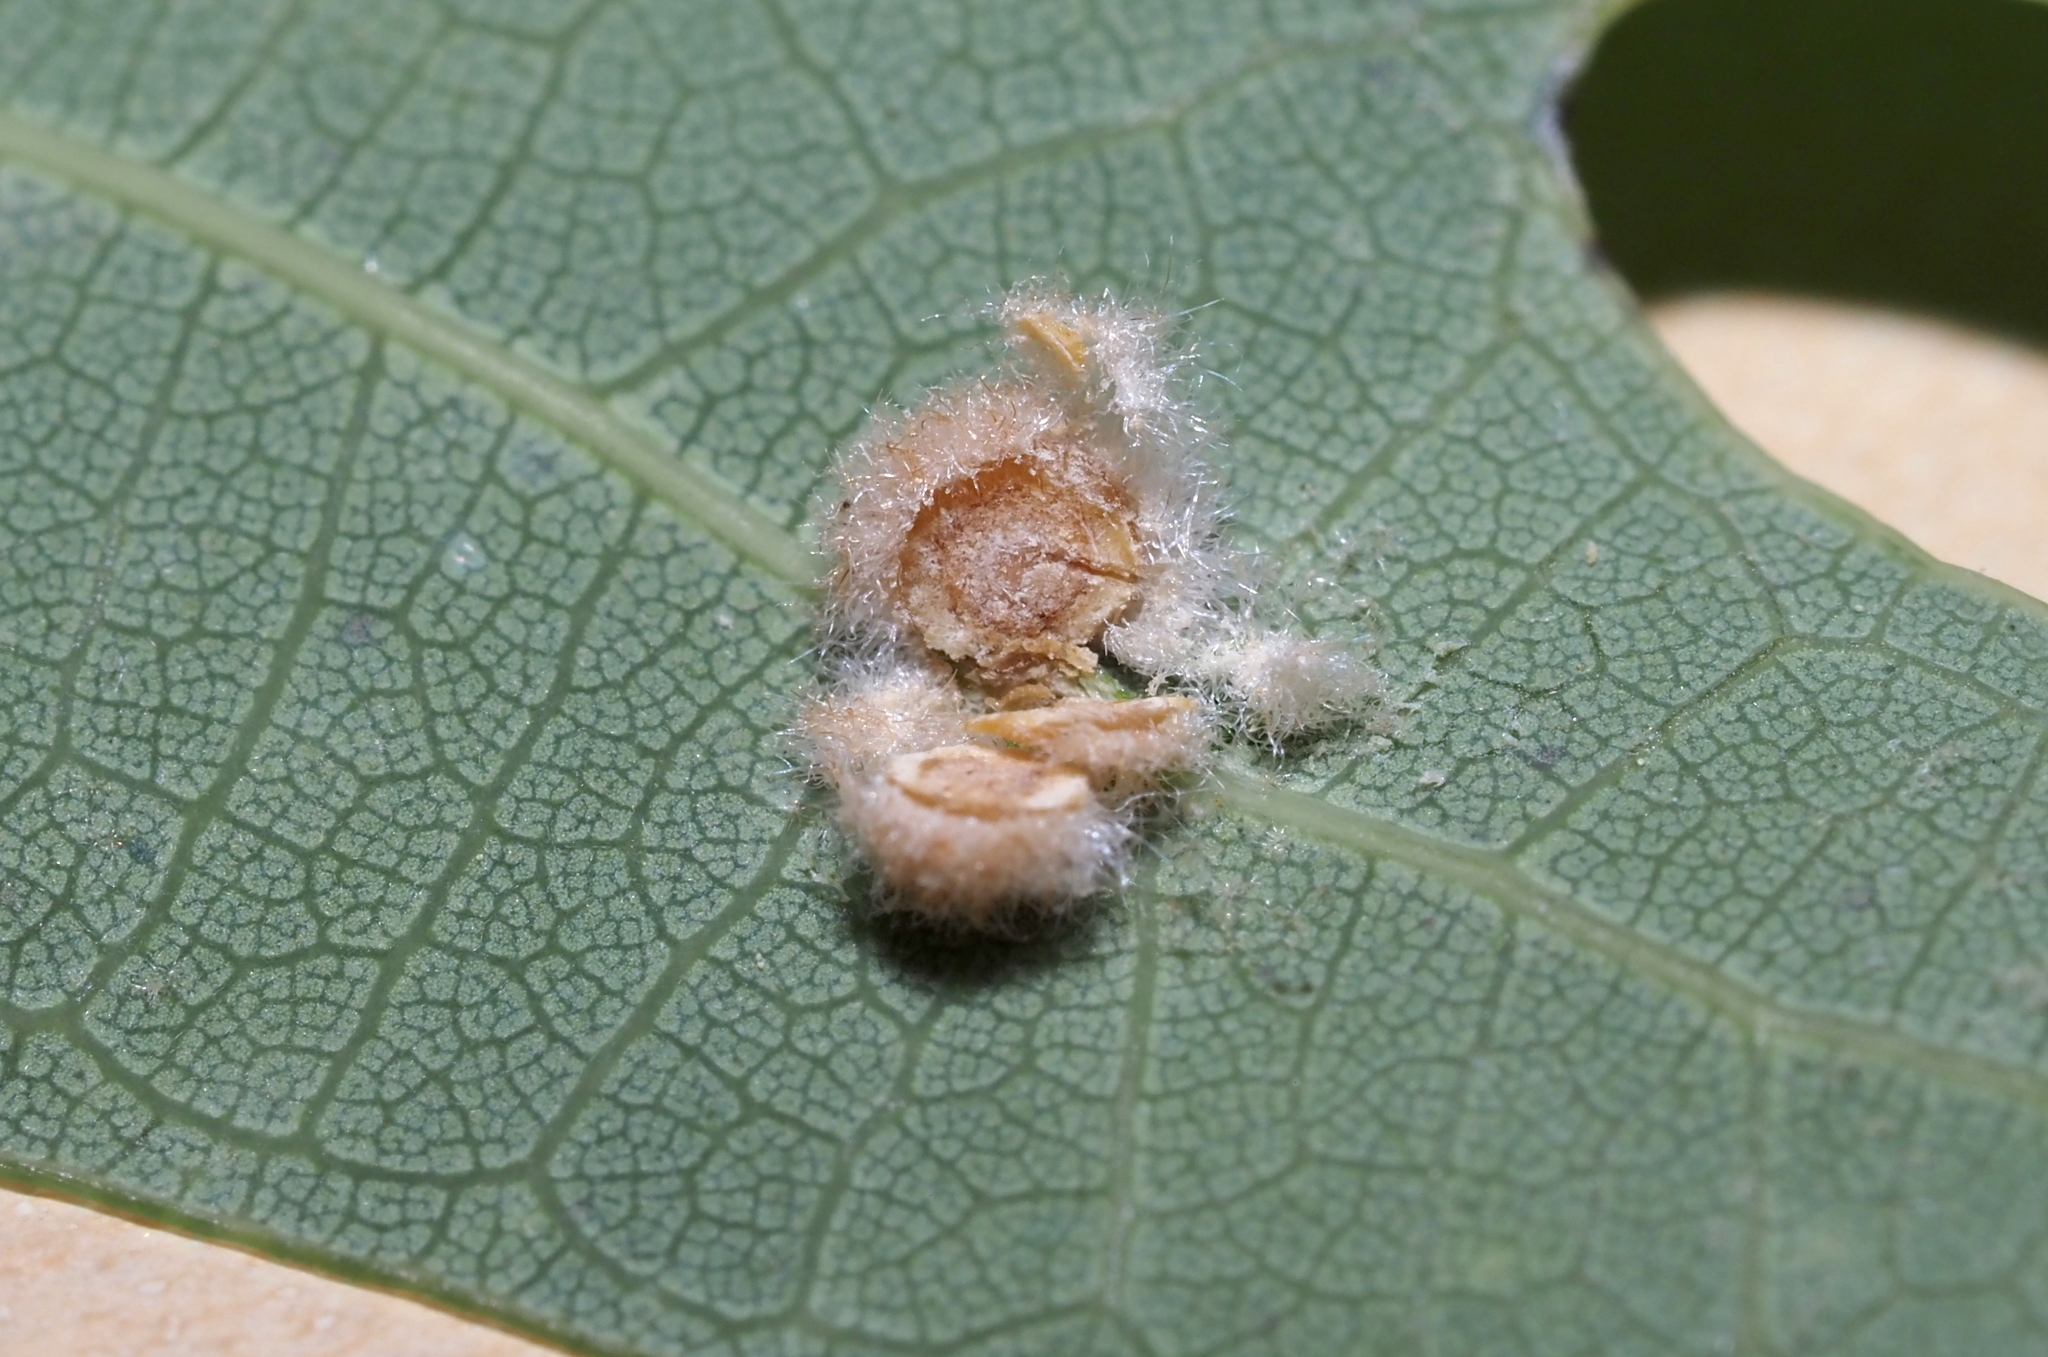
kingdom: Animalia
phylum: Arthropoda
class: Insecta
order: Hymenoptera
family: Cynipidae
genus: Philonix
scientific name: Philonix fulvicollis
